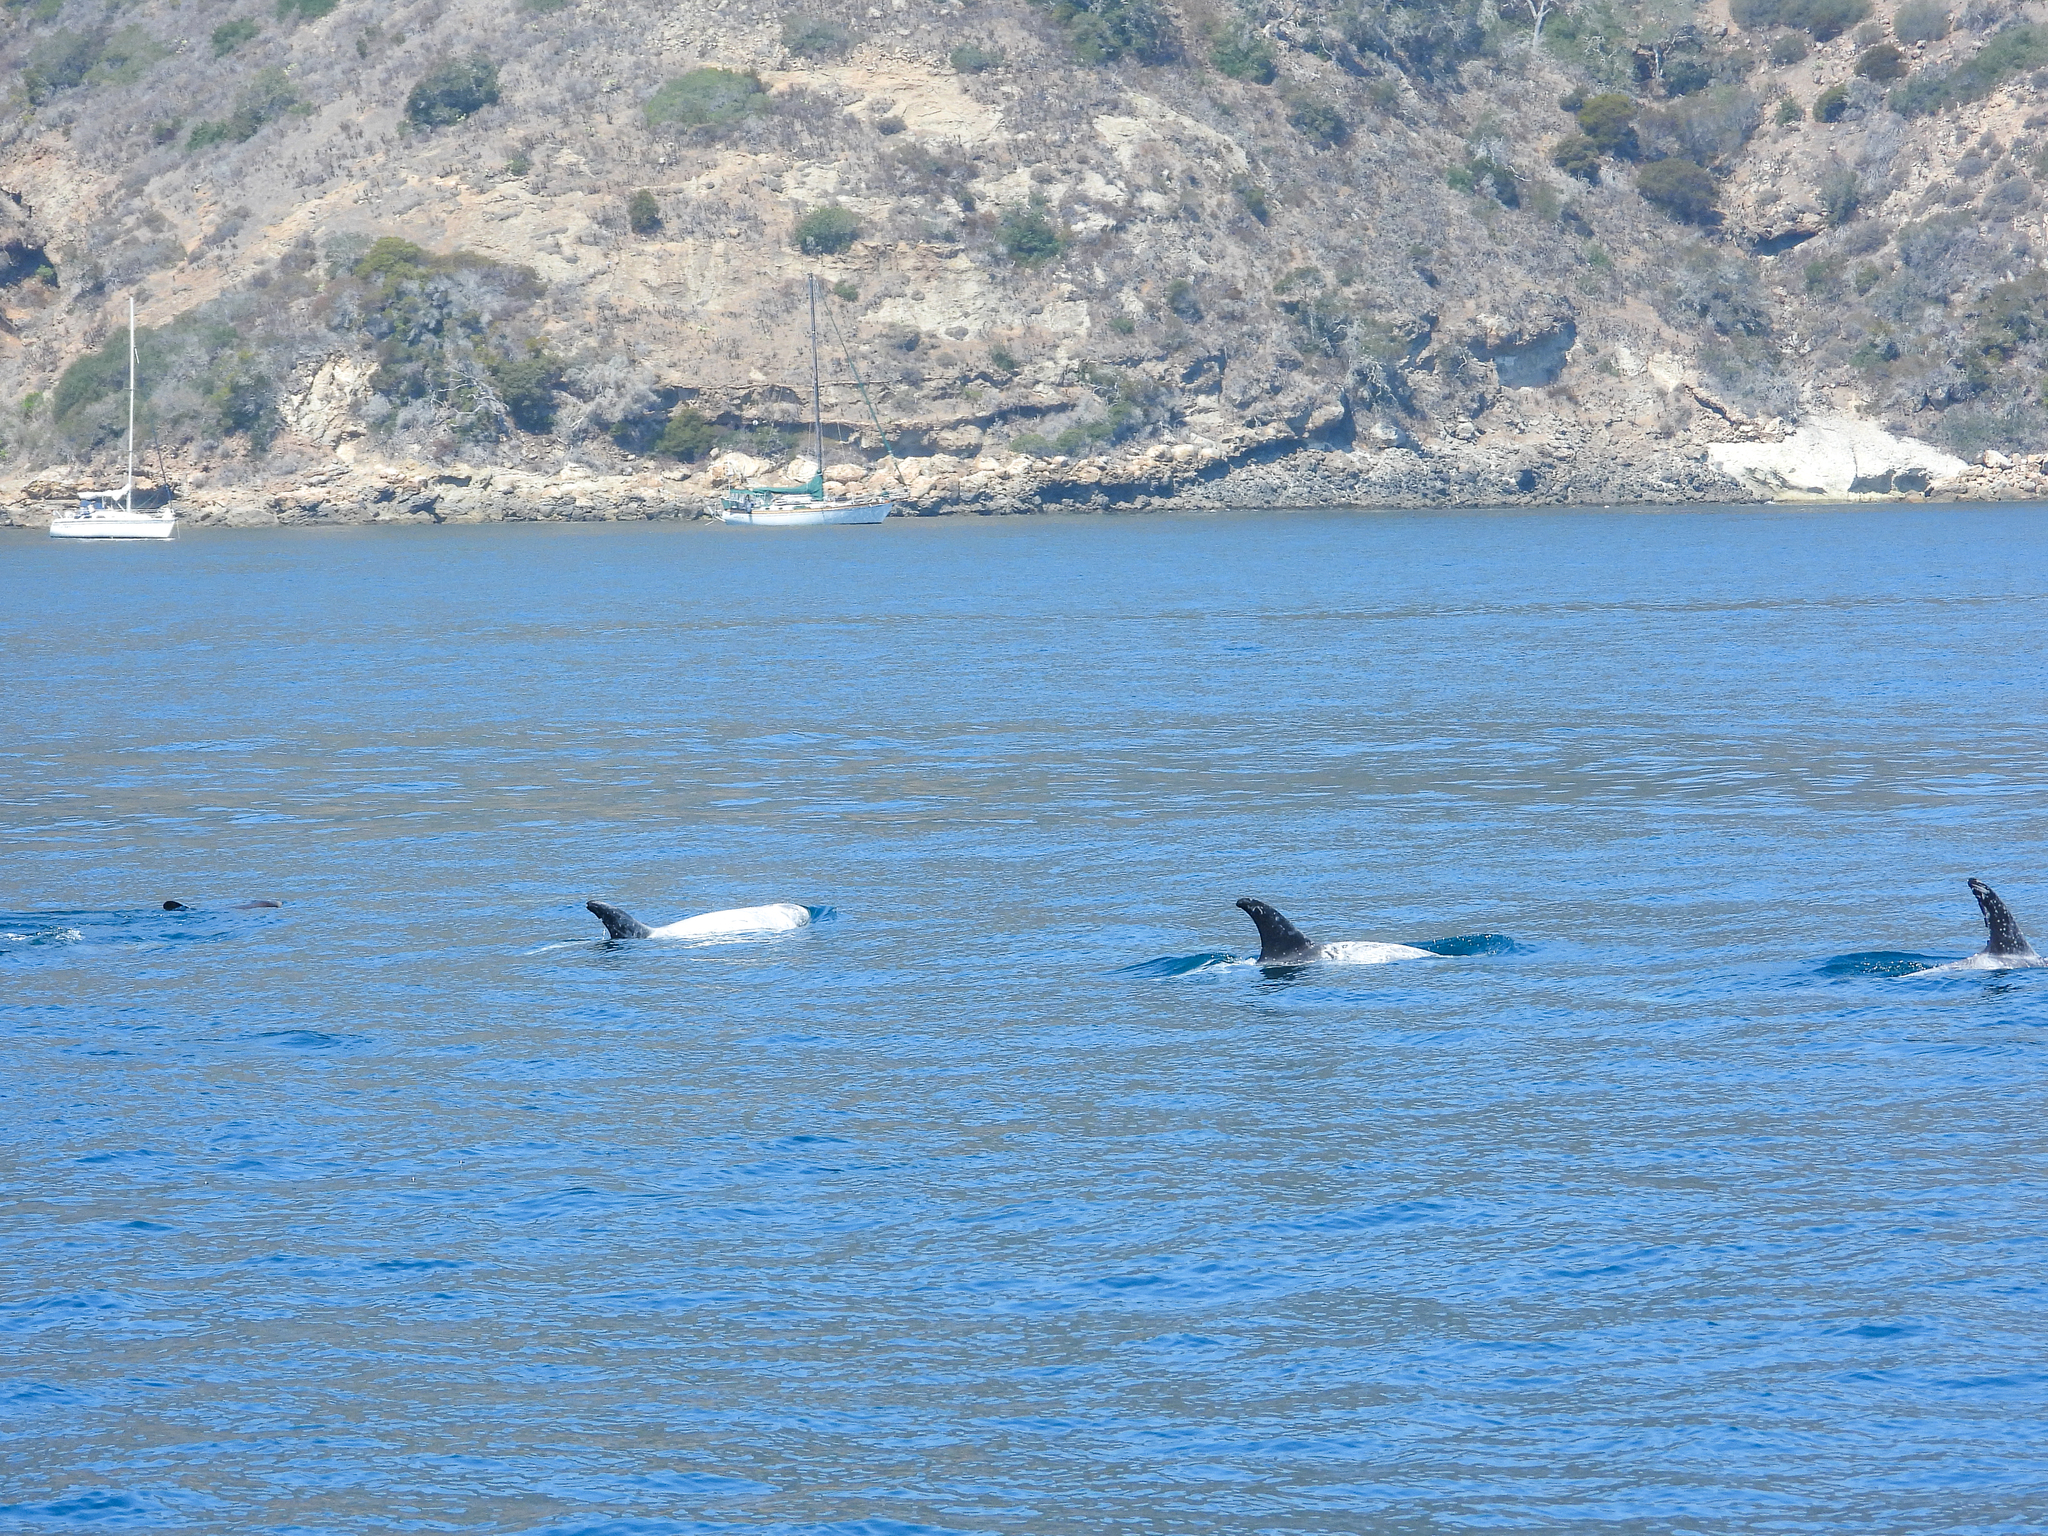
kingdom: Animalia
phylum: Chordata
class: Mammalia
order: Cetacea
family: Delphinidae
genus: Grampus
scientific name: Grampus griseus
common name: Risso's dolphin
